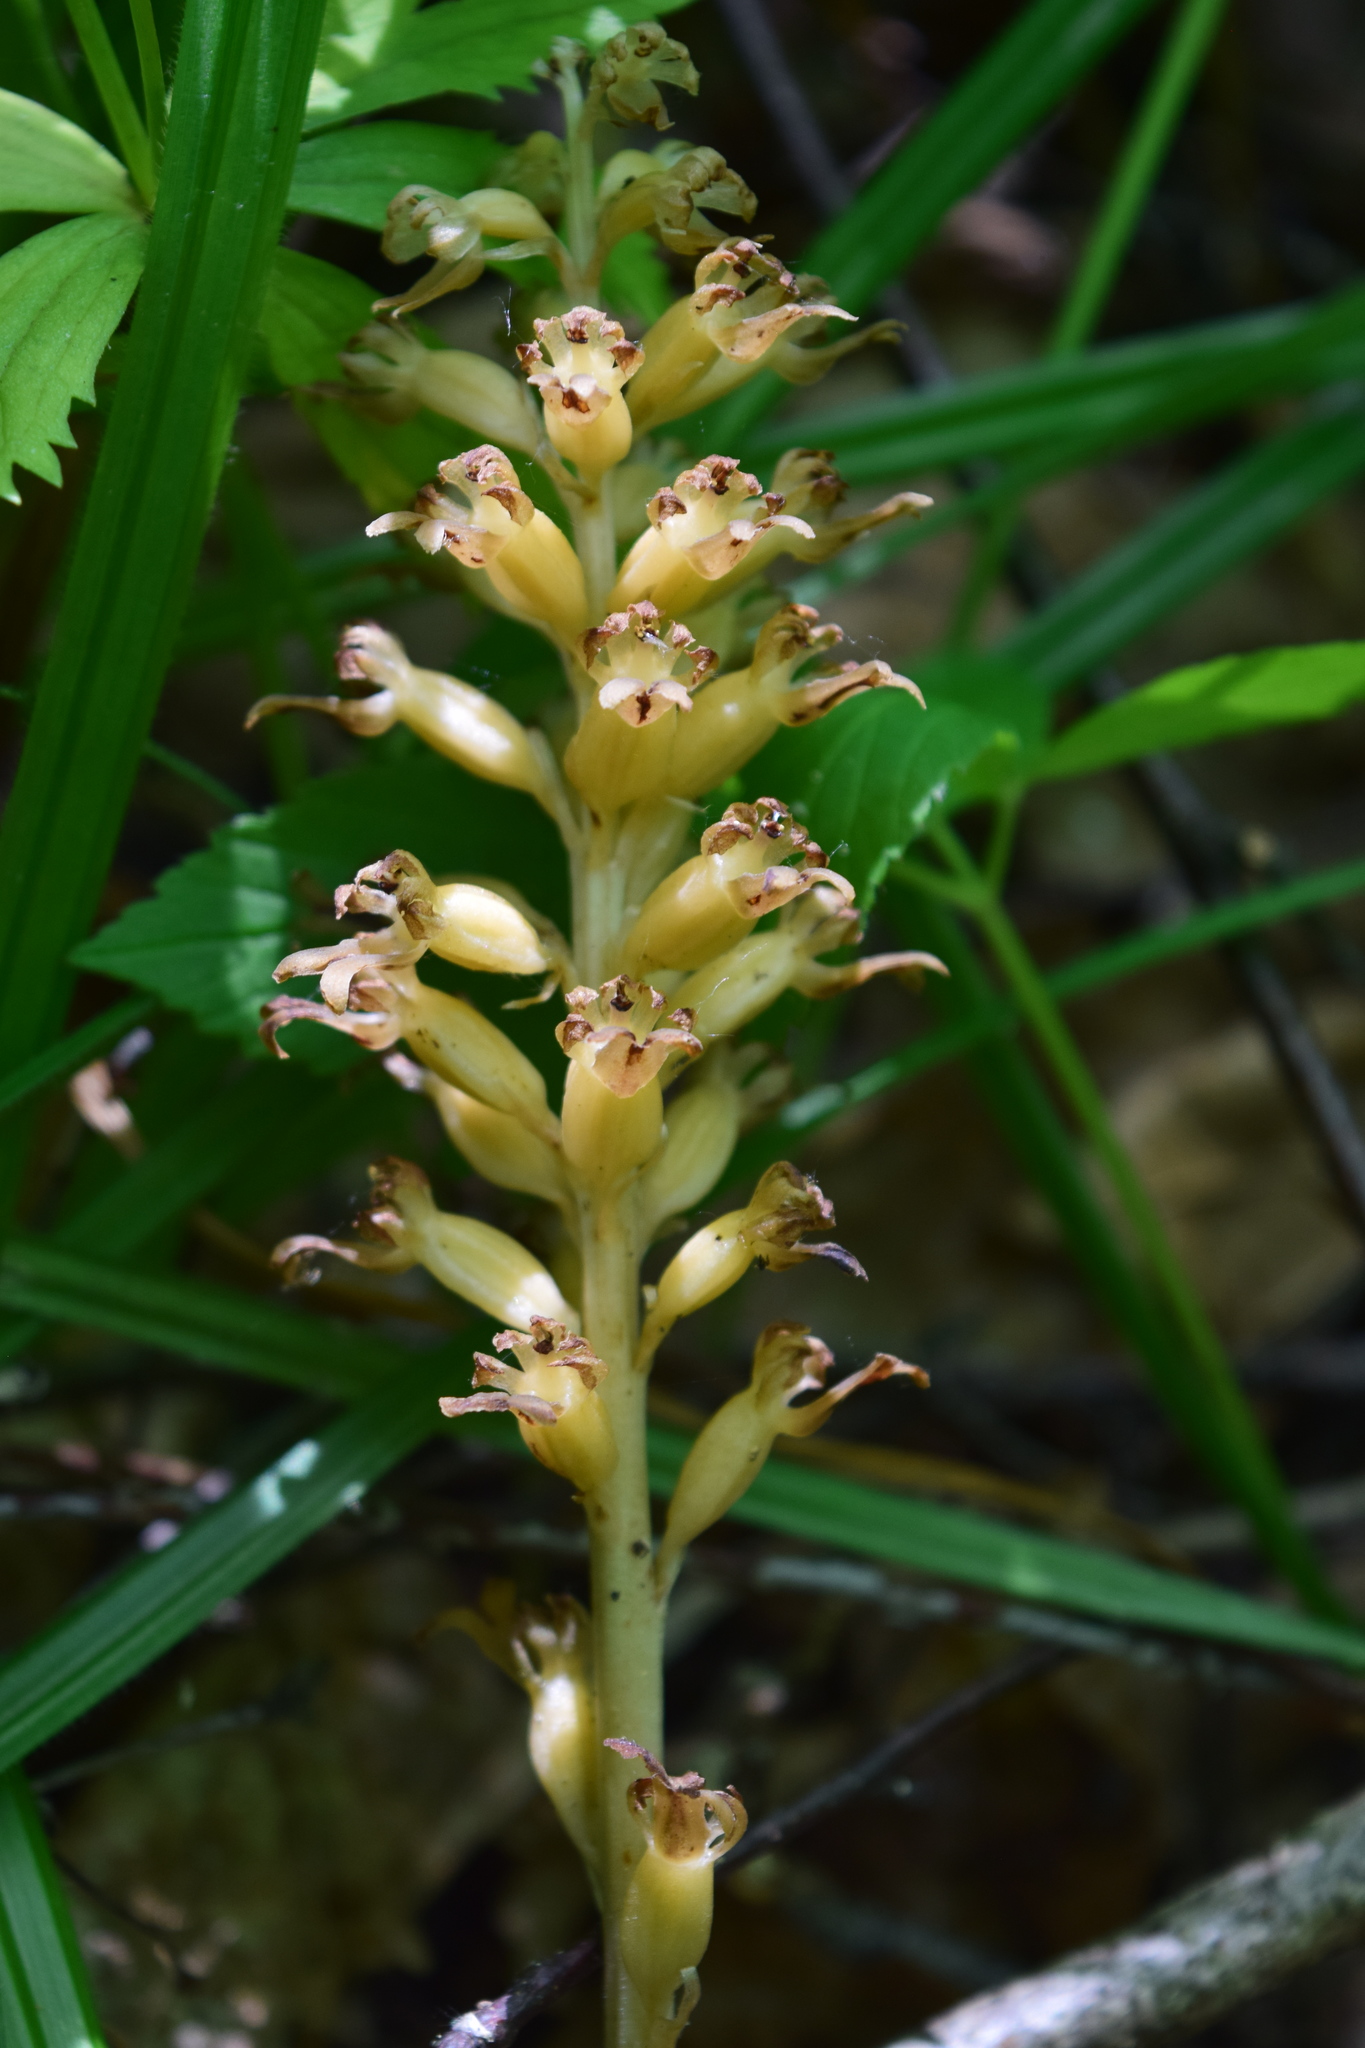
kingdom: Plantae
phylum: Tracheophyta
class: Liliopsida
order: Asparagales
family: Orchidaceae
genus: Neottia
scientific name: Neottia nidus-avis
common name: Bird's-nest orchid
